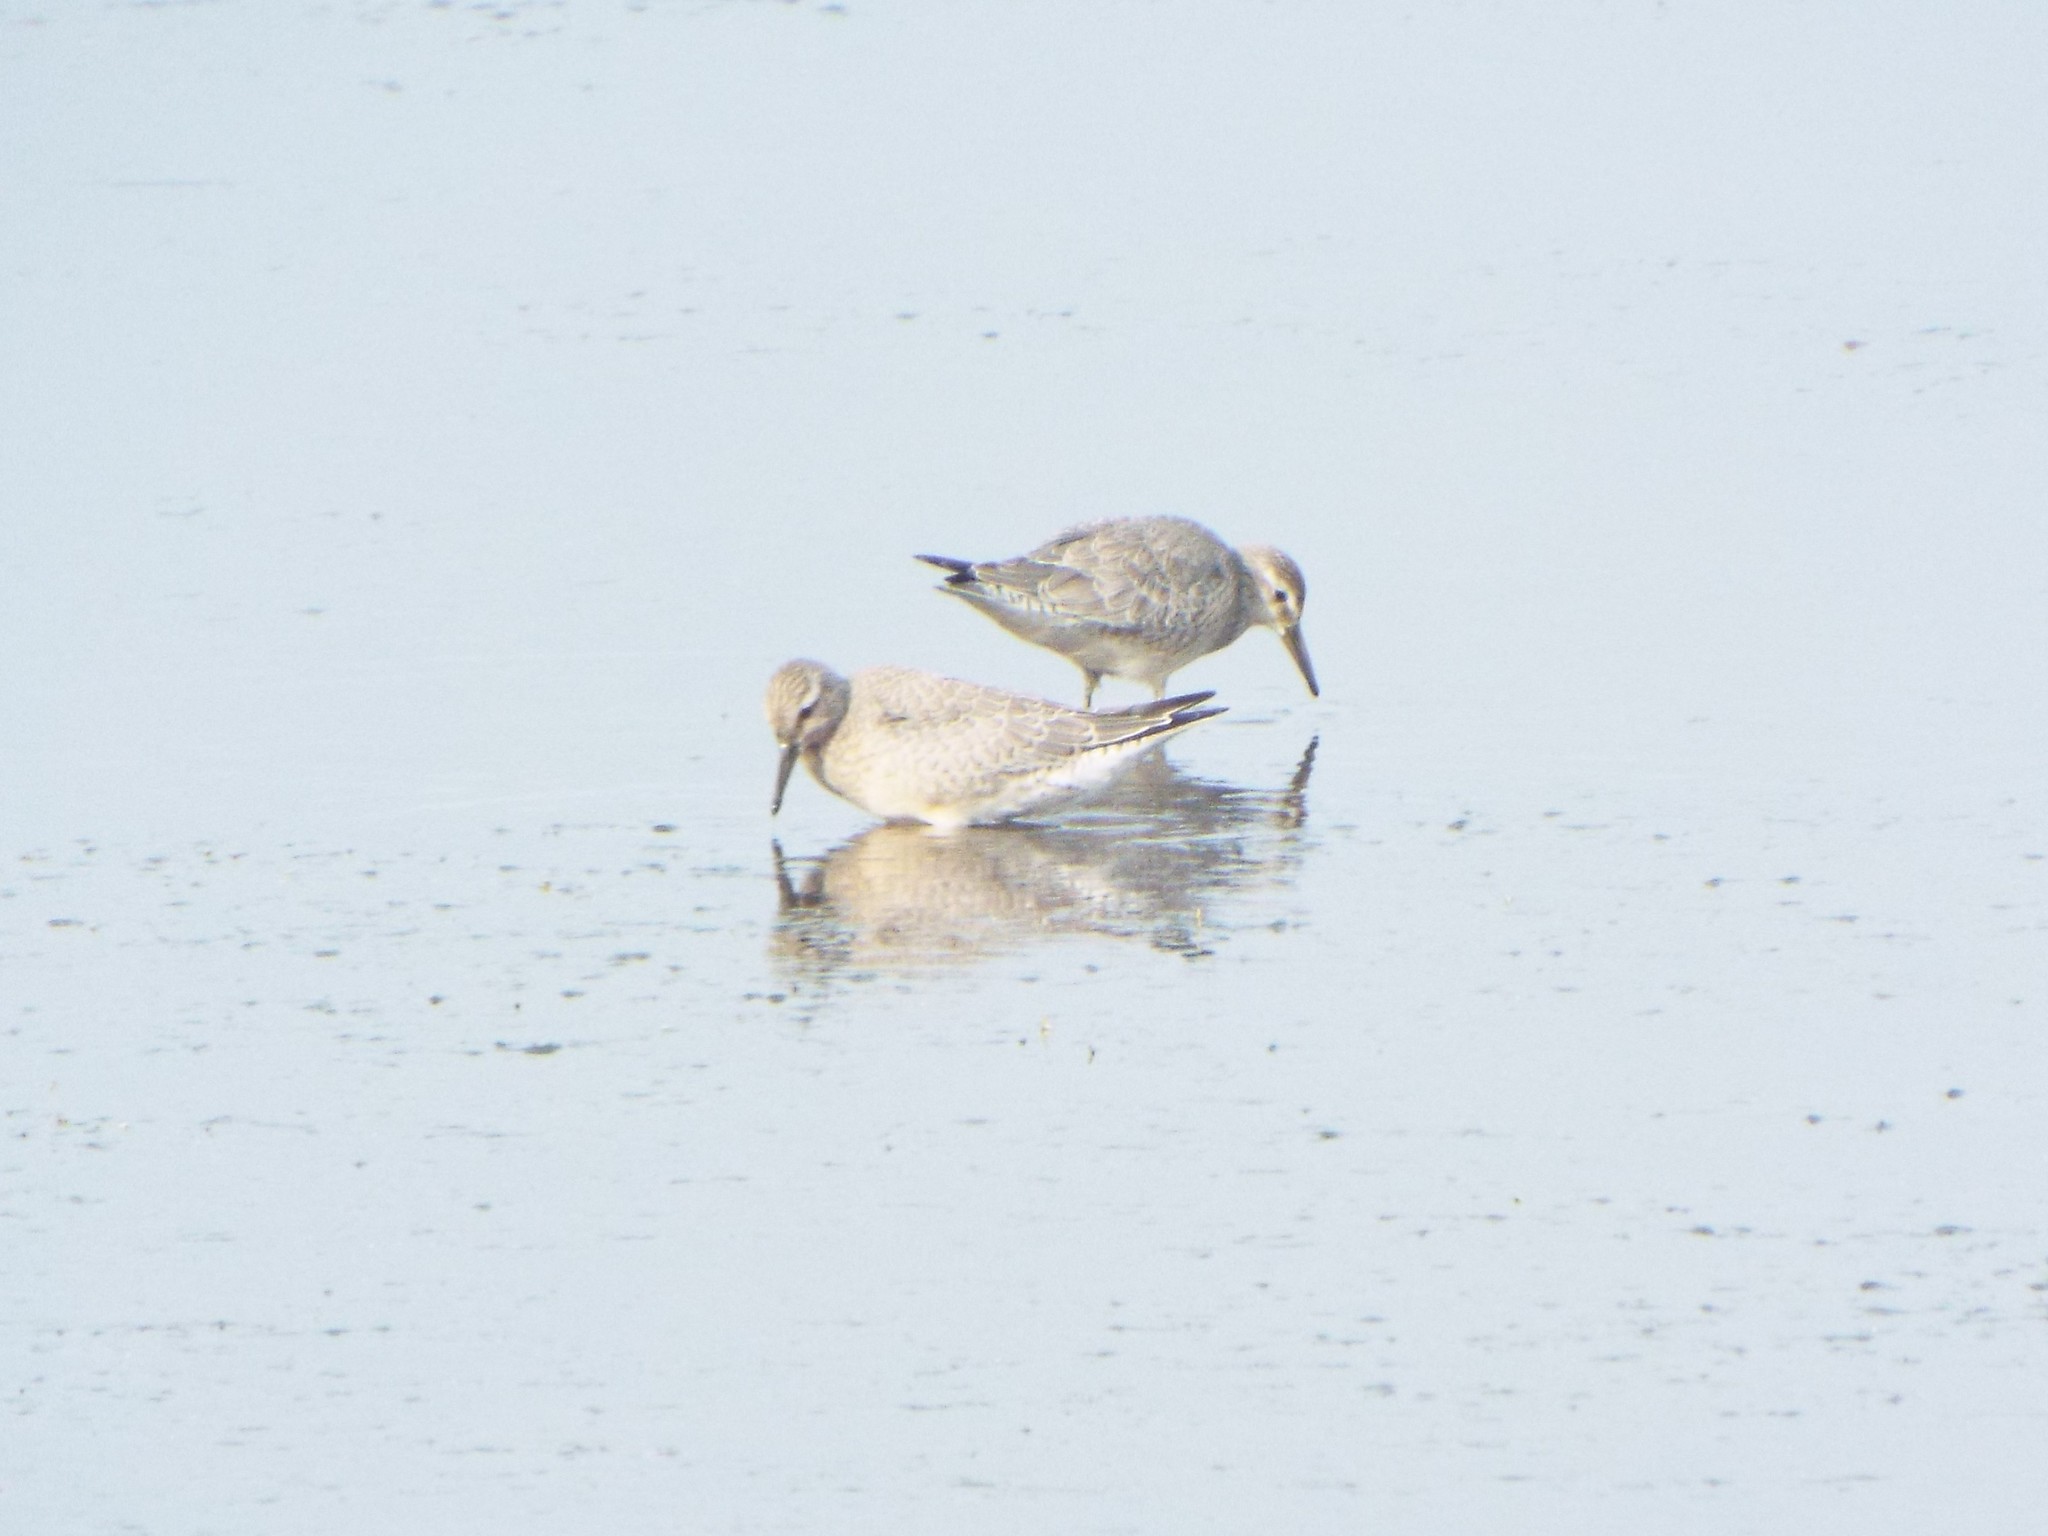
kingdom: Animalia
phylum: Chordata
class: Aves
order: Charadriiformes
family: Scolopacidae
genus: Calidris
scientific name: Calidris canutus
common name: Red knot
